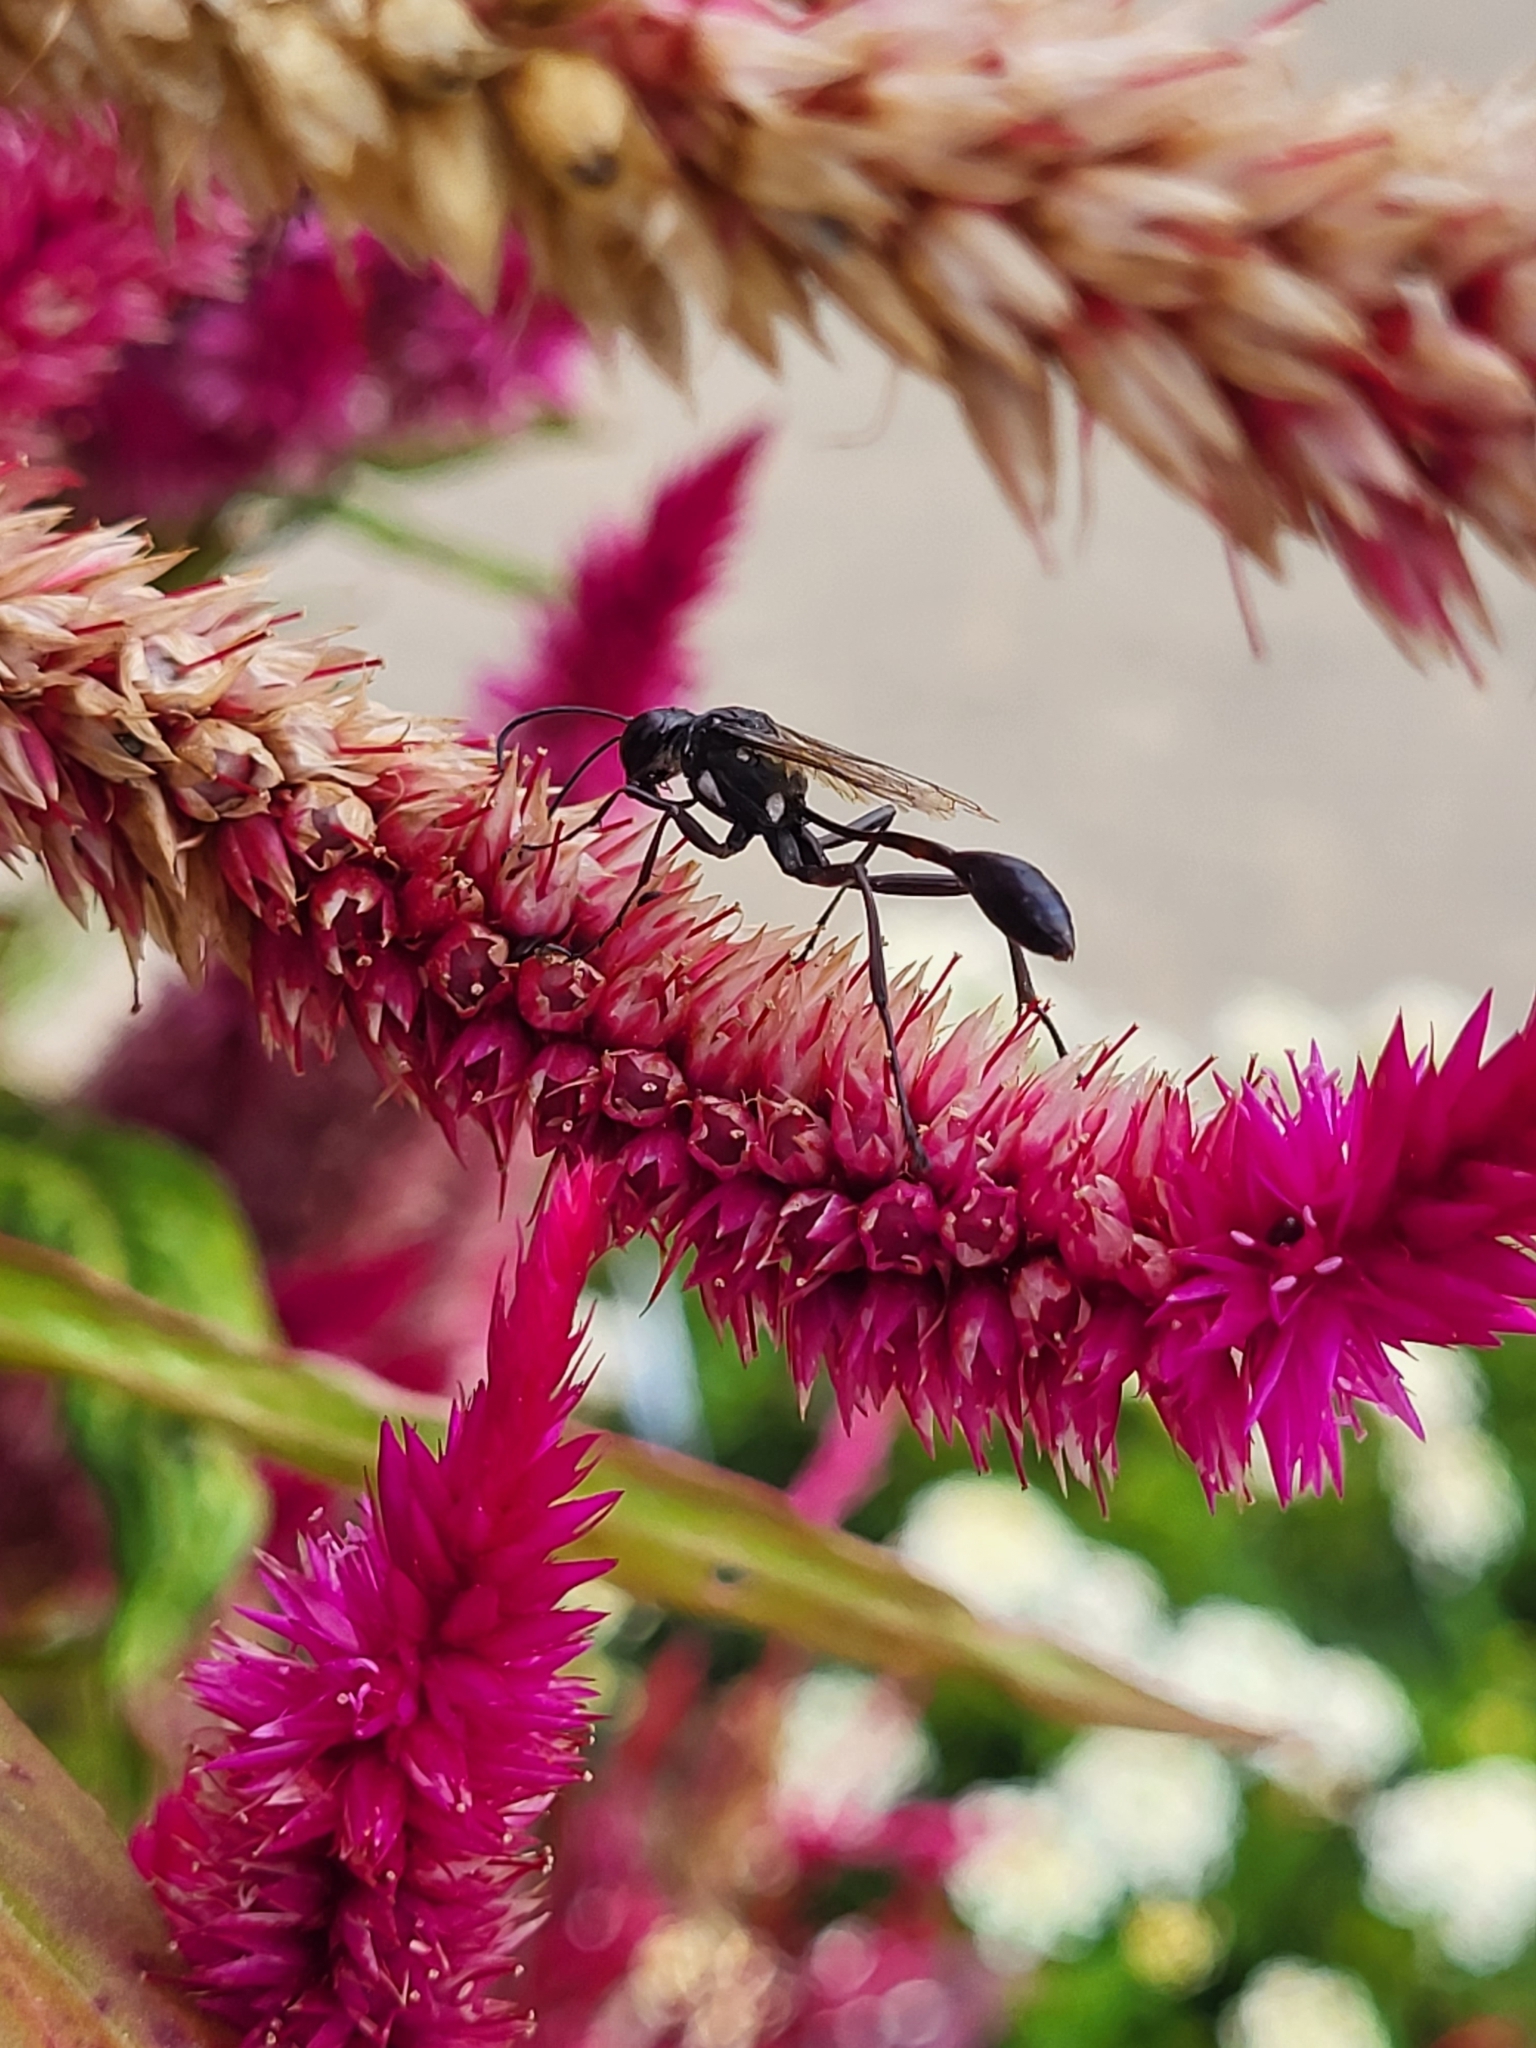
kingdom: Animalia
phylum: Arthropoda
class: Insecta
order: Hymenoptera
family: Sphecidae
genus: Eremnophila
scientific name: Eremnophila aureonotata
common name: Gold-marked thread-waisted wasp
